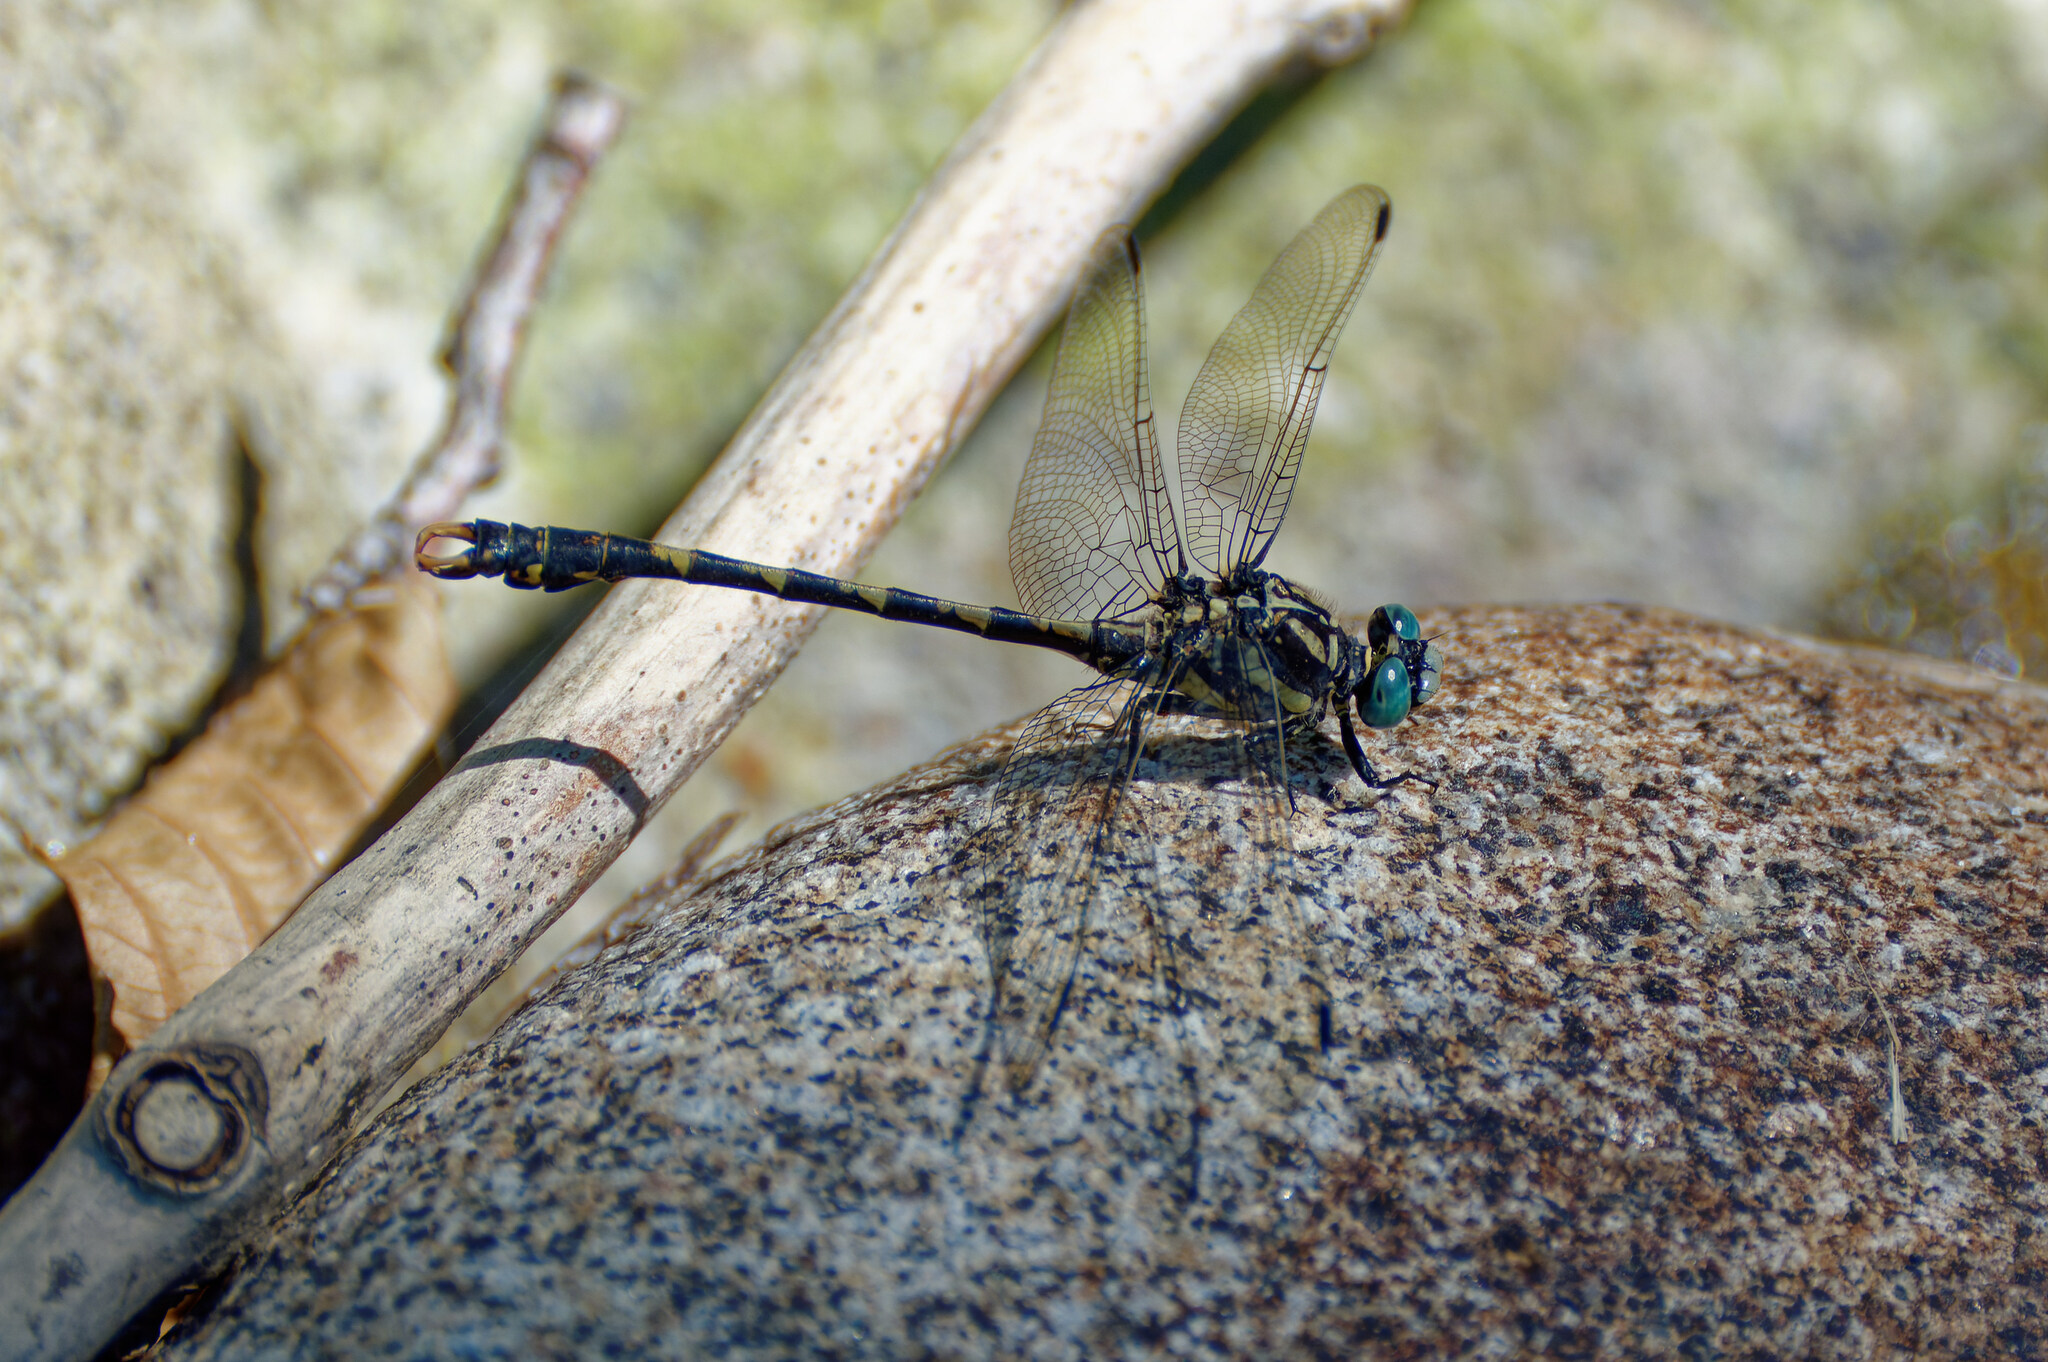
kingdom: Animalia
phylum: Arthropoda
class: Insecta
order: Odonata
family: Gomphidae
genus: Onychogomphus
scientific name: Onychogomphus uncatus
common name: Large pincertail
